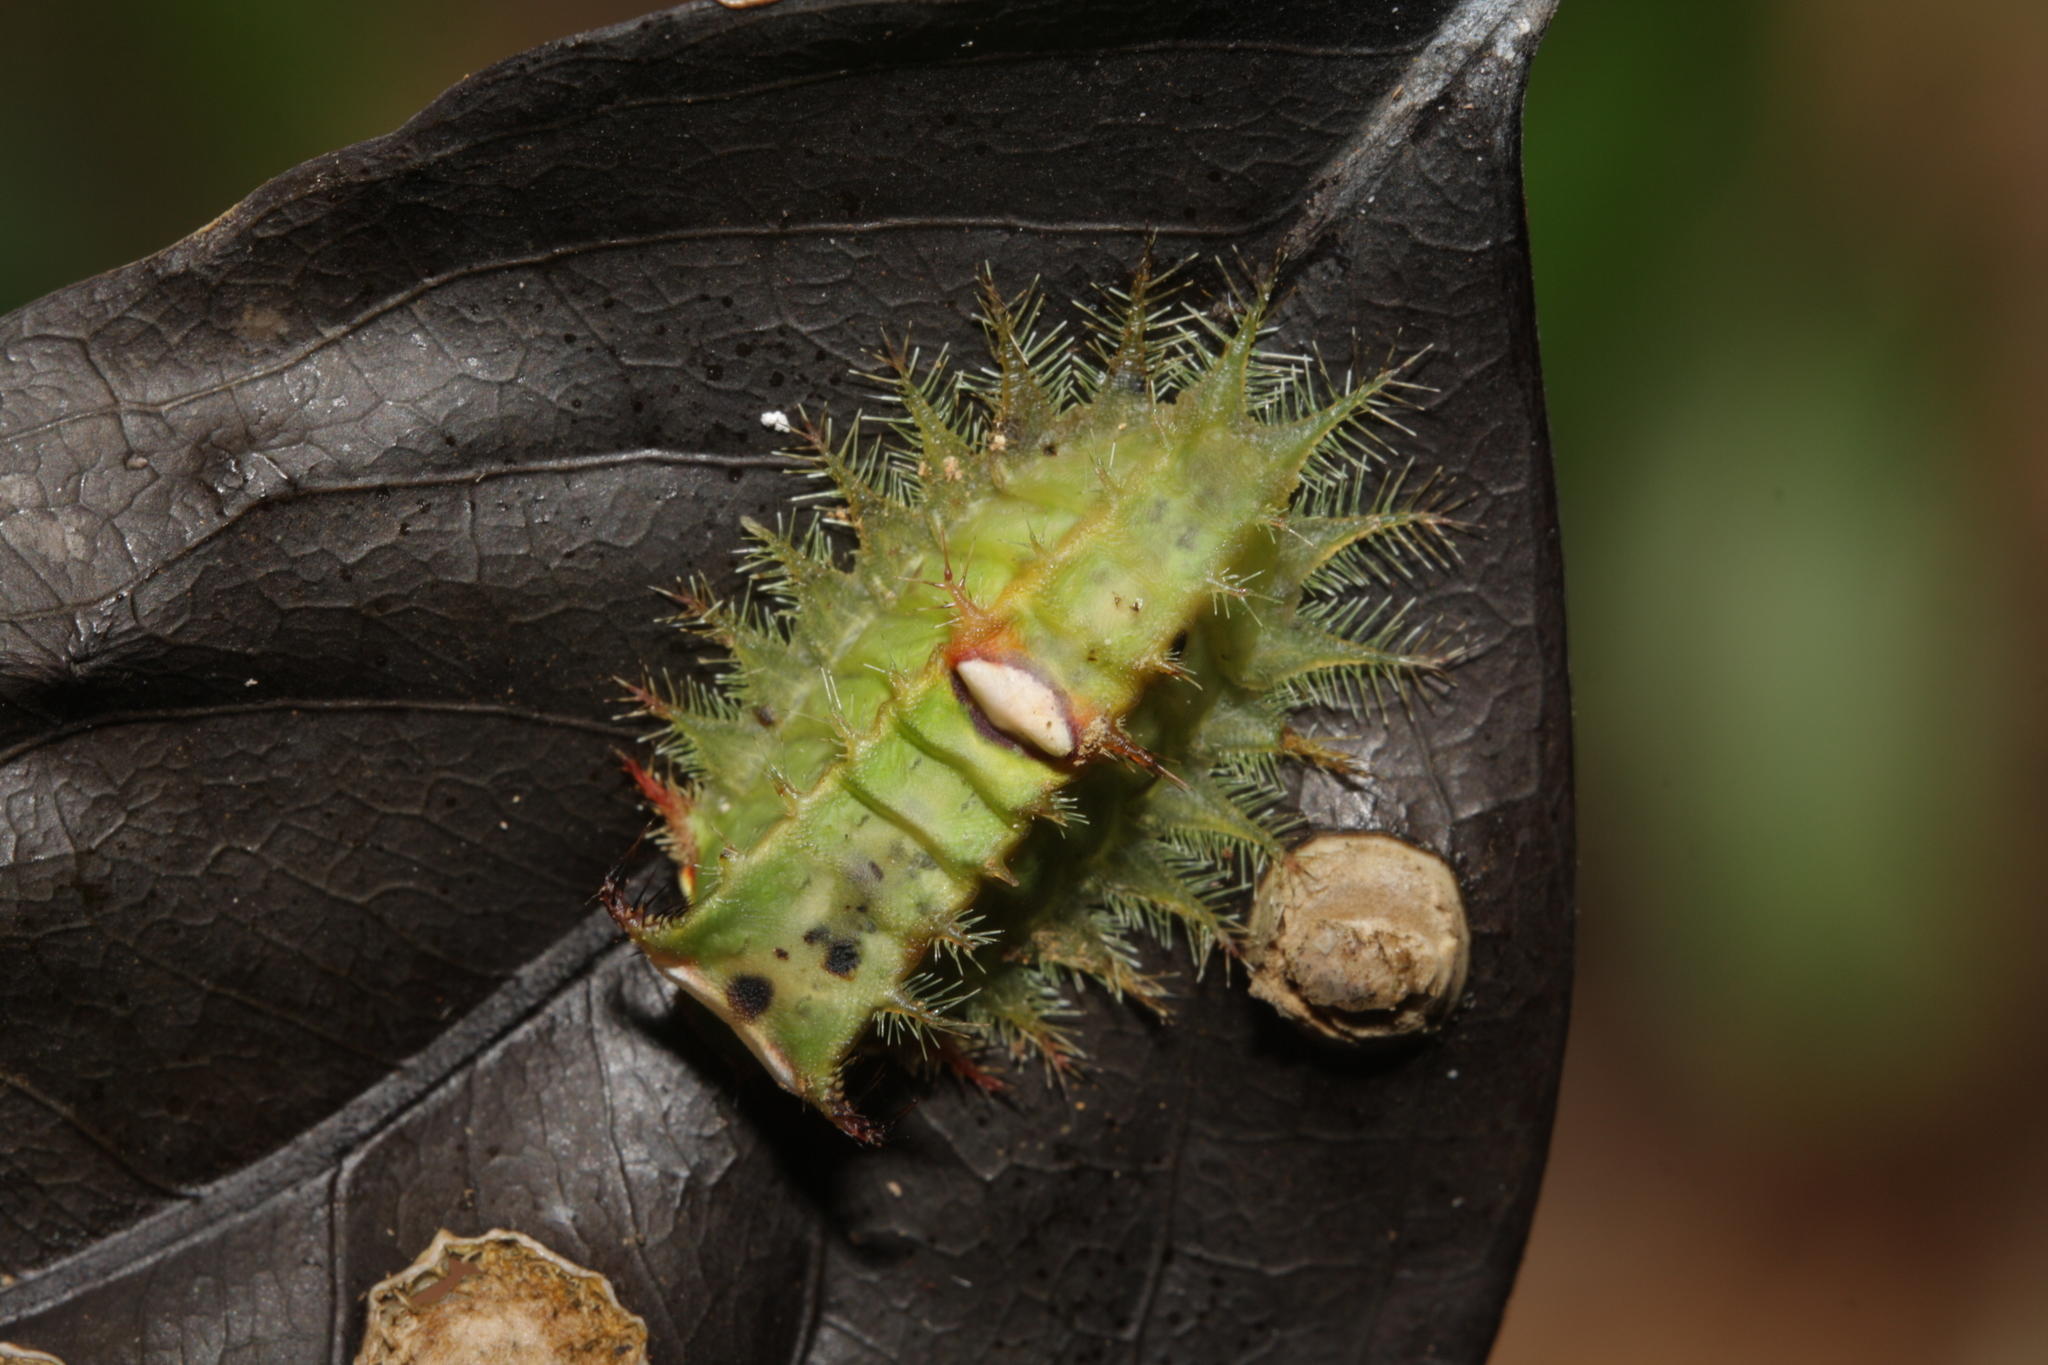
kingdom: Animalia
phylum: Arthropoda
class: Insecta
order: Lepidoptera
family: Limacodidae
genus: Natada
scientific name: Natada subpectinata
